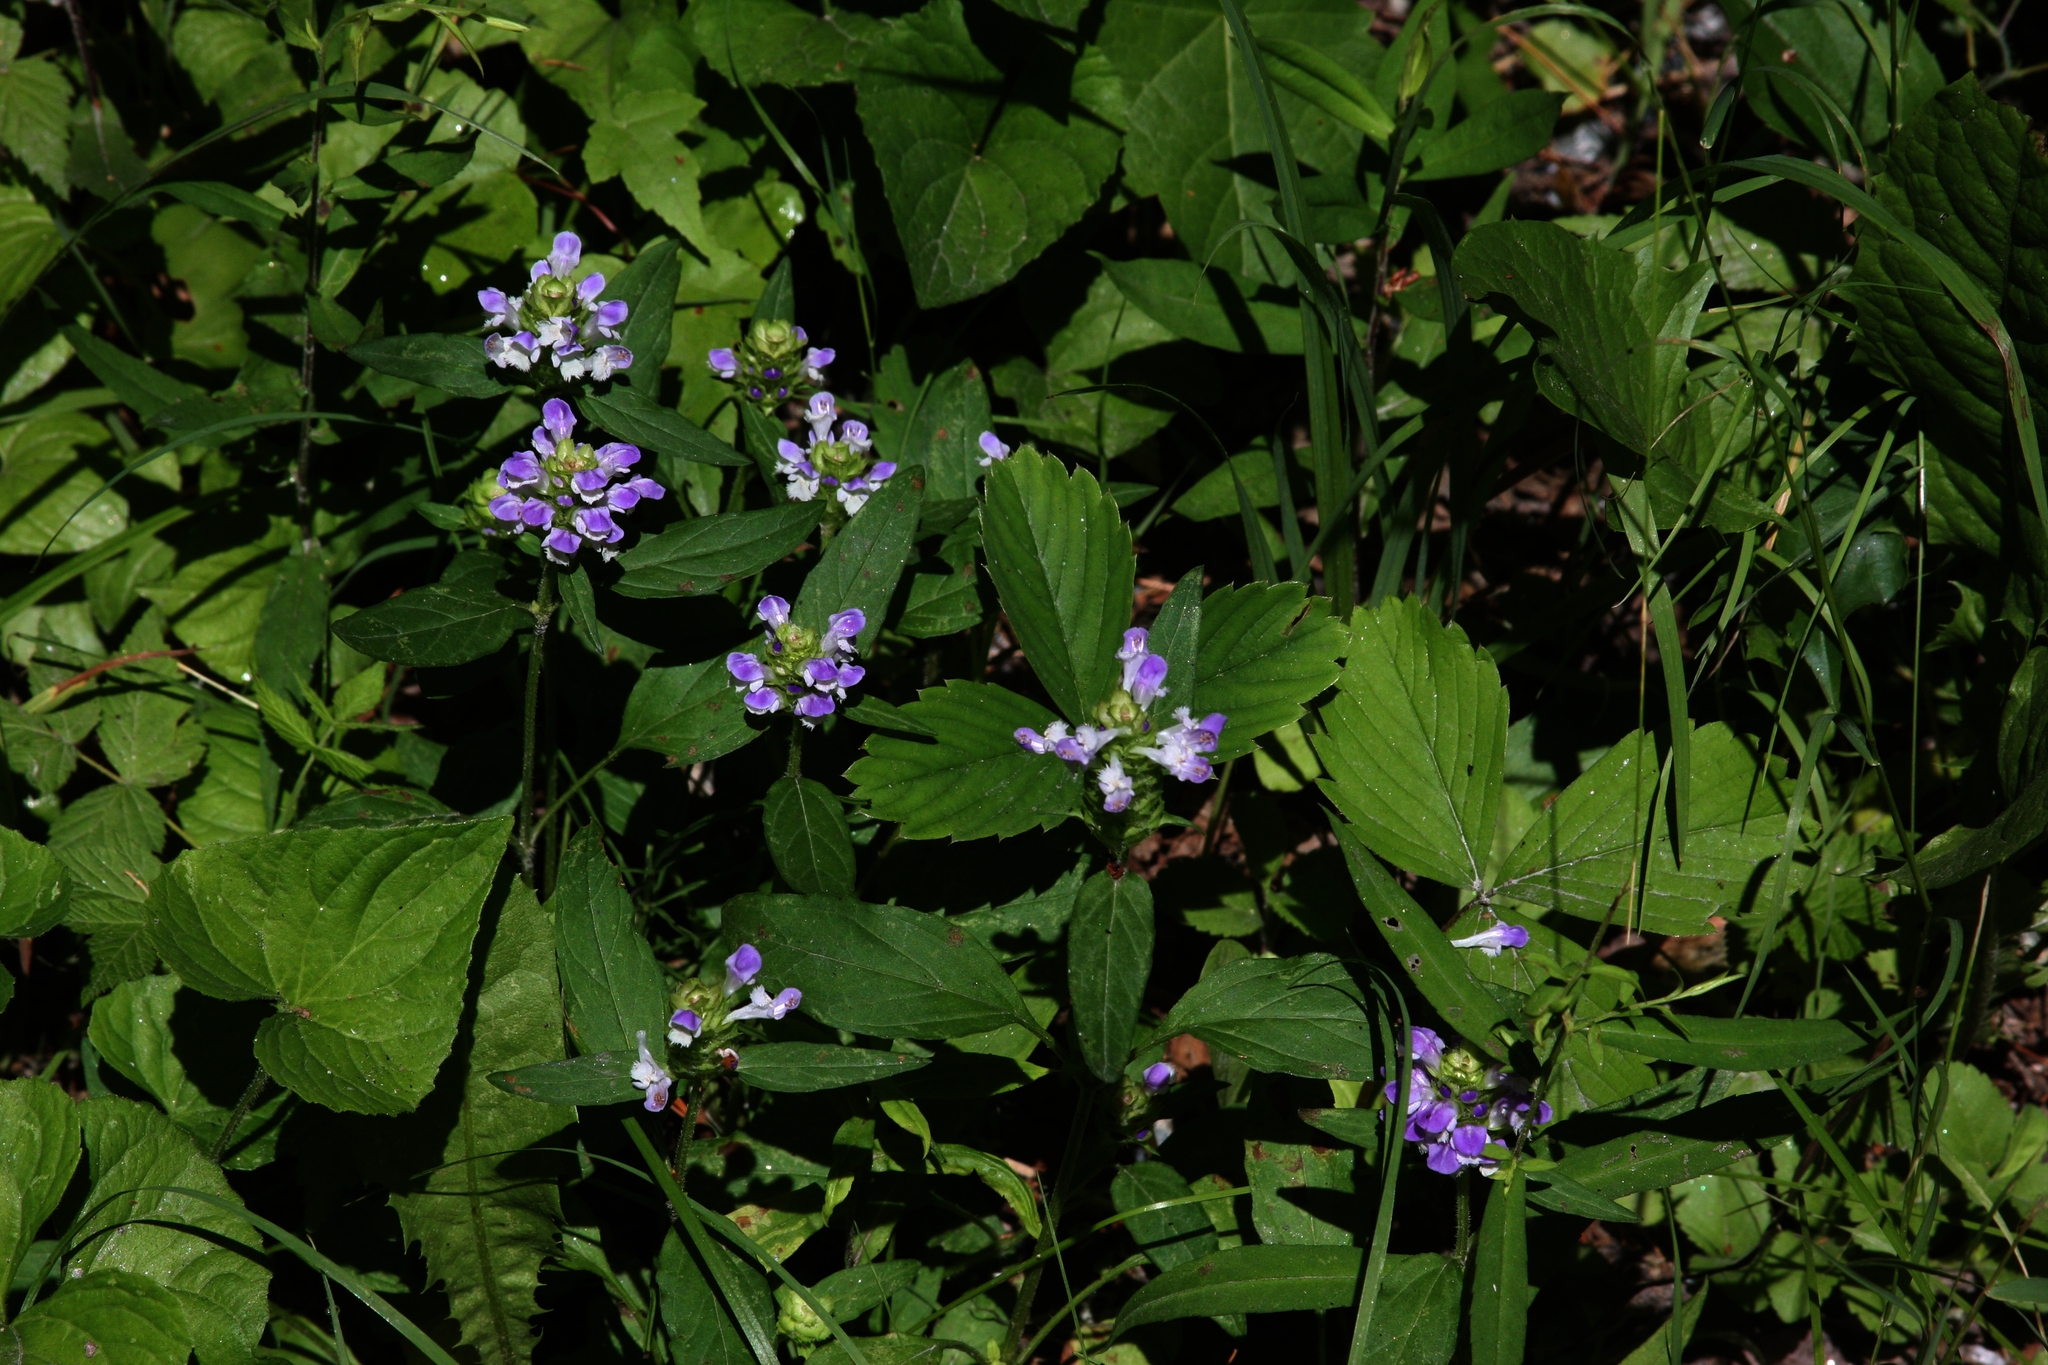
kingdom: Plantae
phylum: Tracheophyta
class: Magnoliopsida
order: Lamiales
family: Lamiaceae
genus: Prunella
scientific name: Prunella vulgaris
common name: Heal-all
